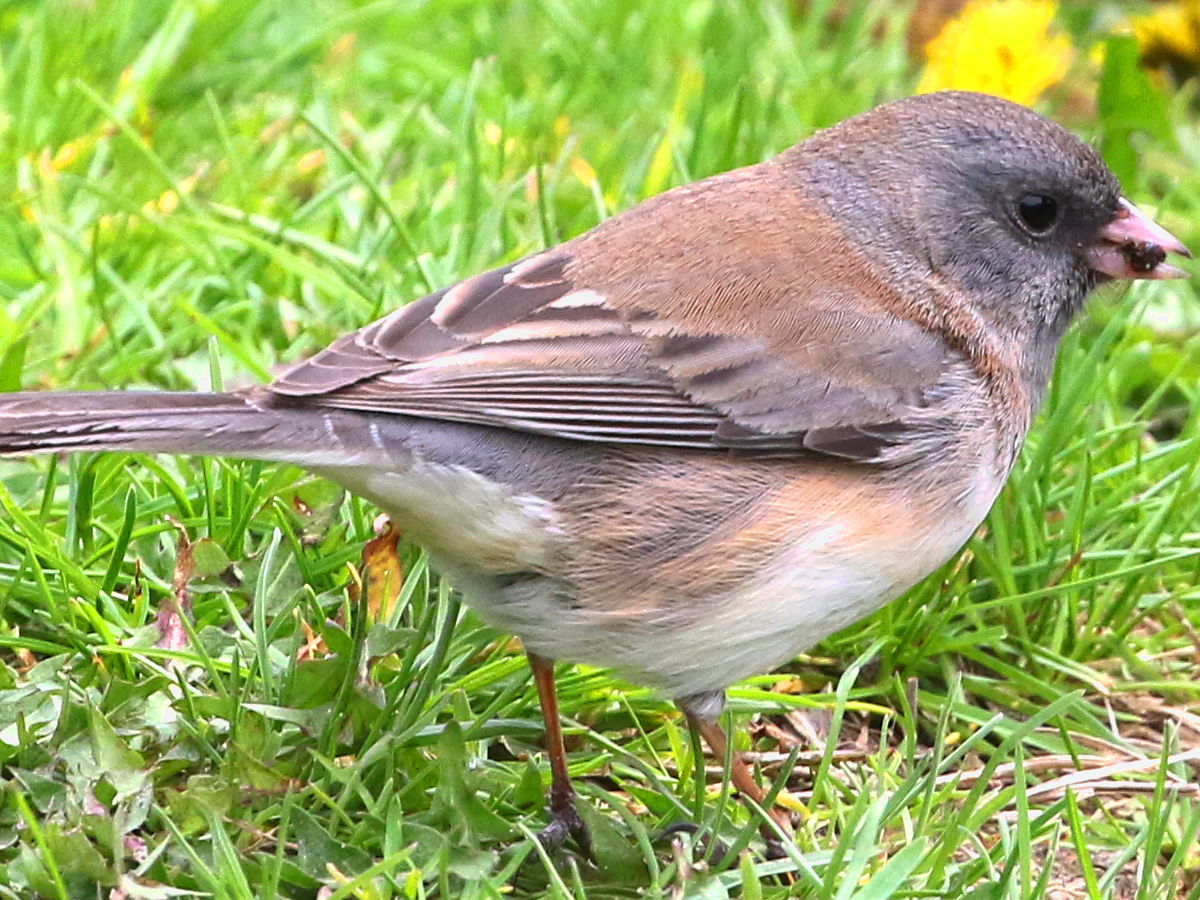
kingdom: Animalia
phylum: Chordata
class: Aves
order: Passeriformes
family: Passerellidae
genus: Junco
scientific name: Junco hyemalis
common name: Dark-eyed junco
